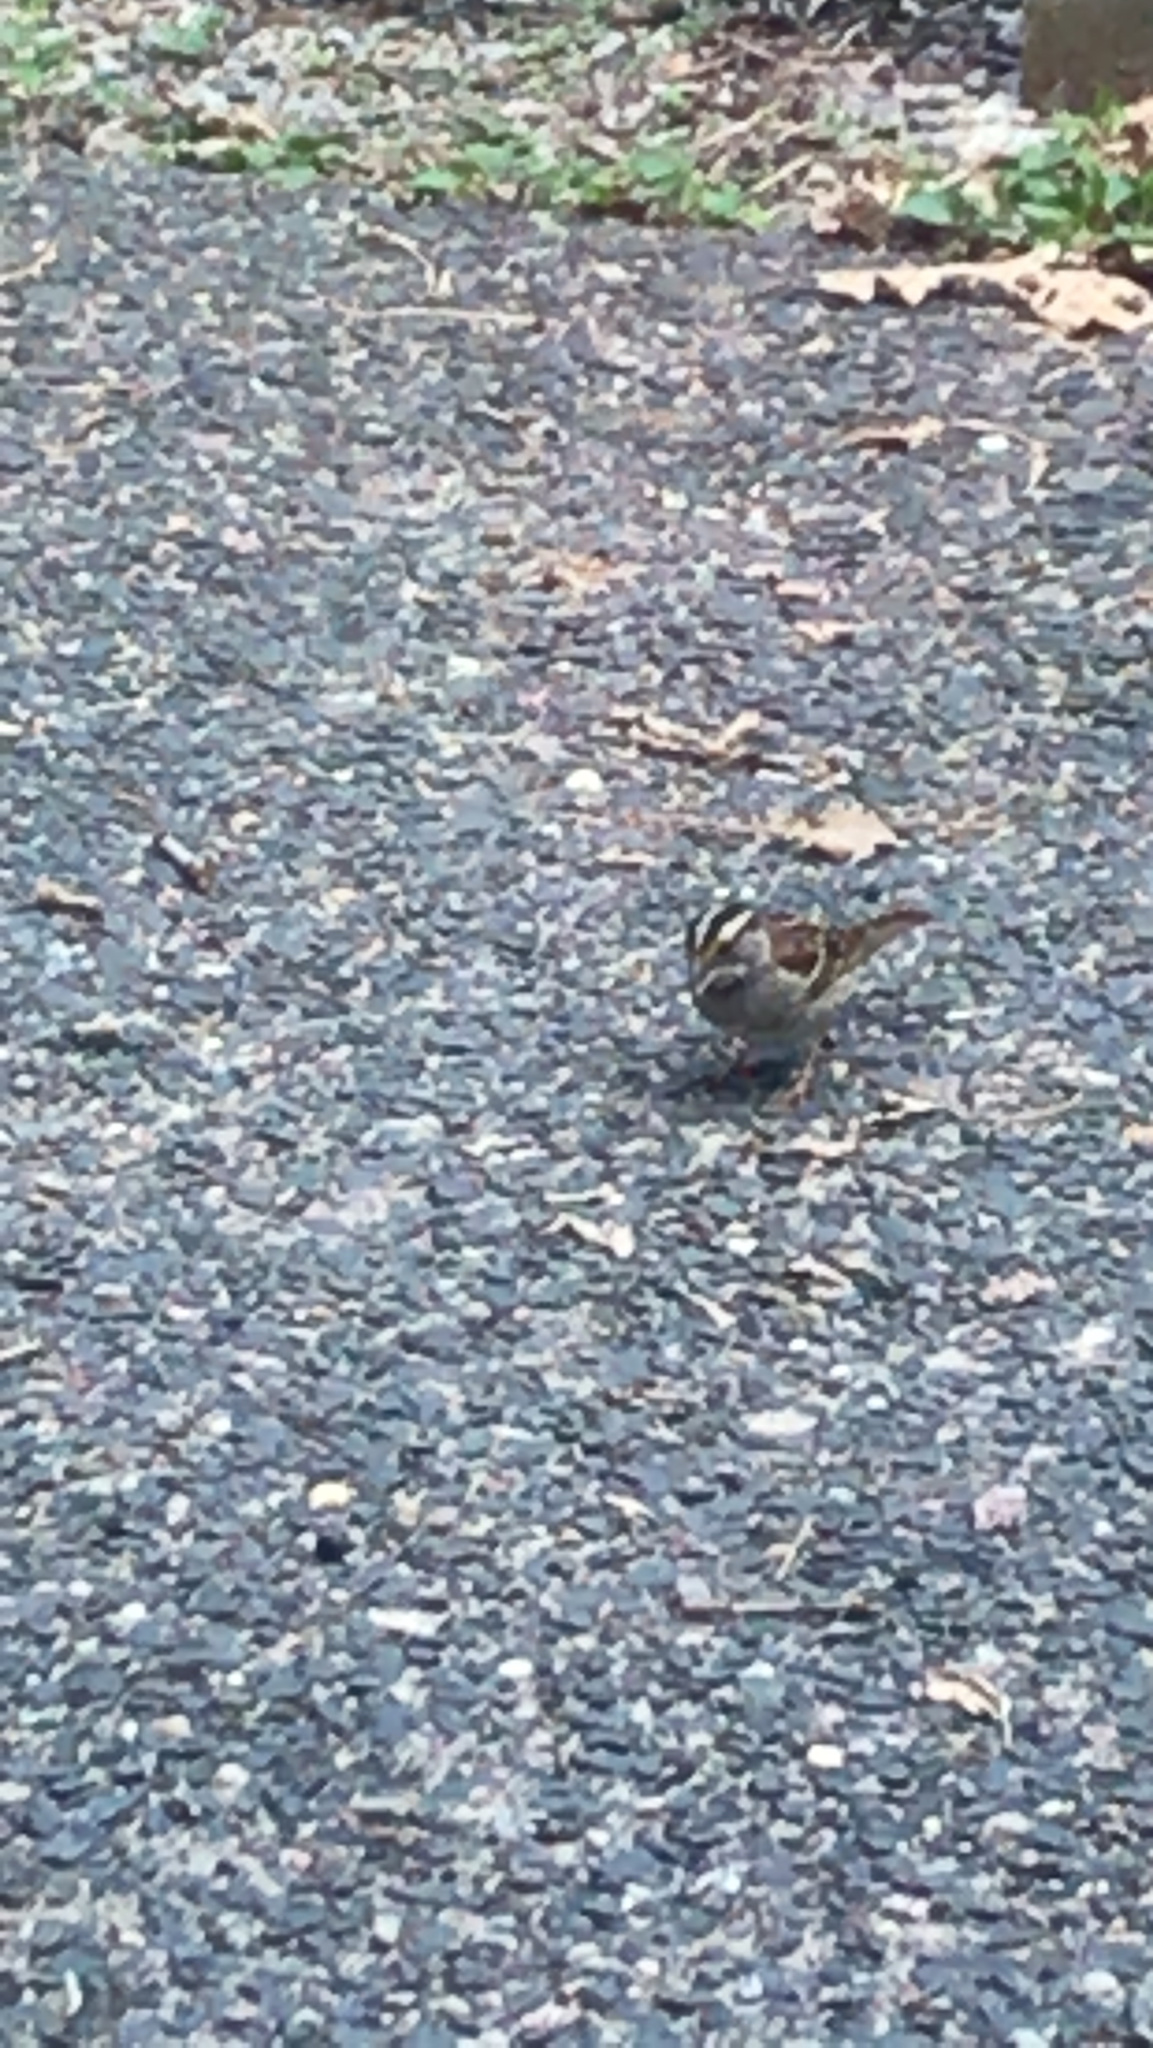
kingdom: Animalia
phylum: Chordata
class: Aves
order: Passeriformes
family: Passerellidae
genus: Zonotrichia
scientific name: Zonotrichia albicollis
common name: White-throated sparrow
